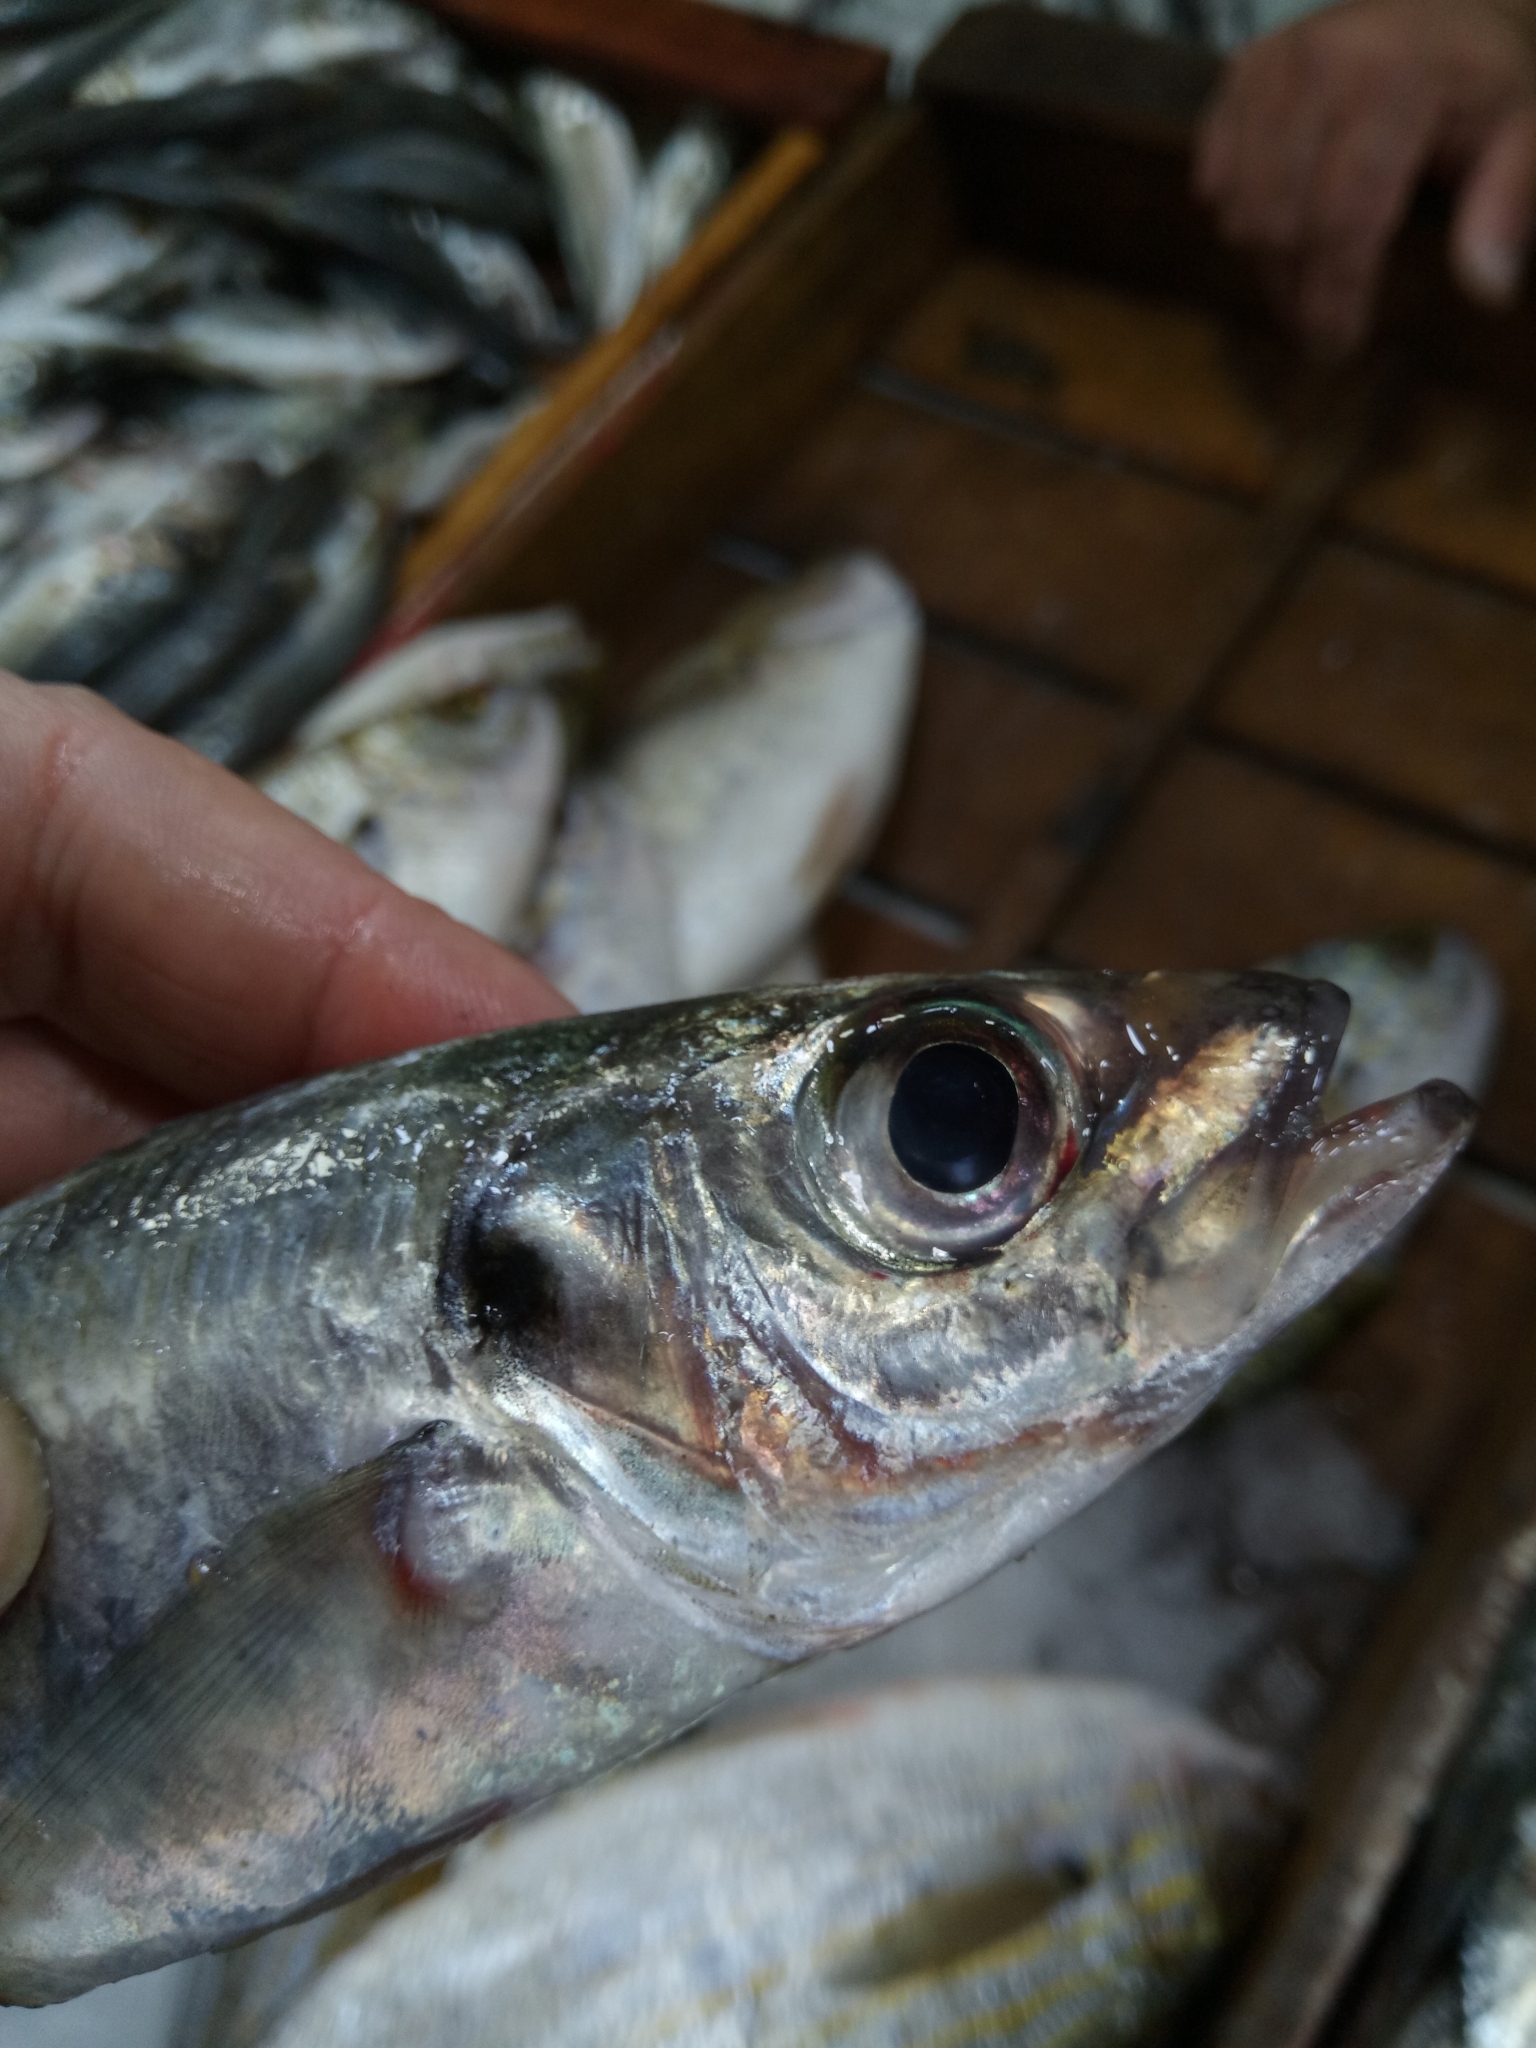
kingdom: Animalia
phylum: Chordata
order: Perciformes
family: Carangidae
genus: Trachurus
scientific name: Trachurus trachurus
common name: Horse mackerel
